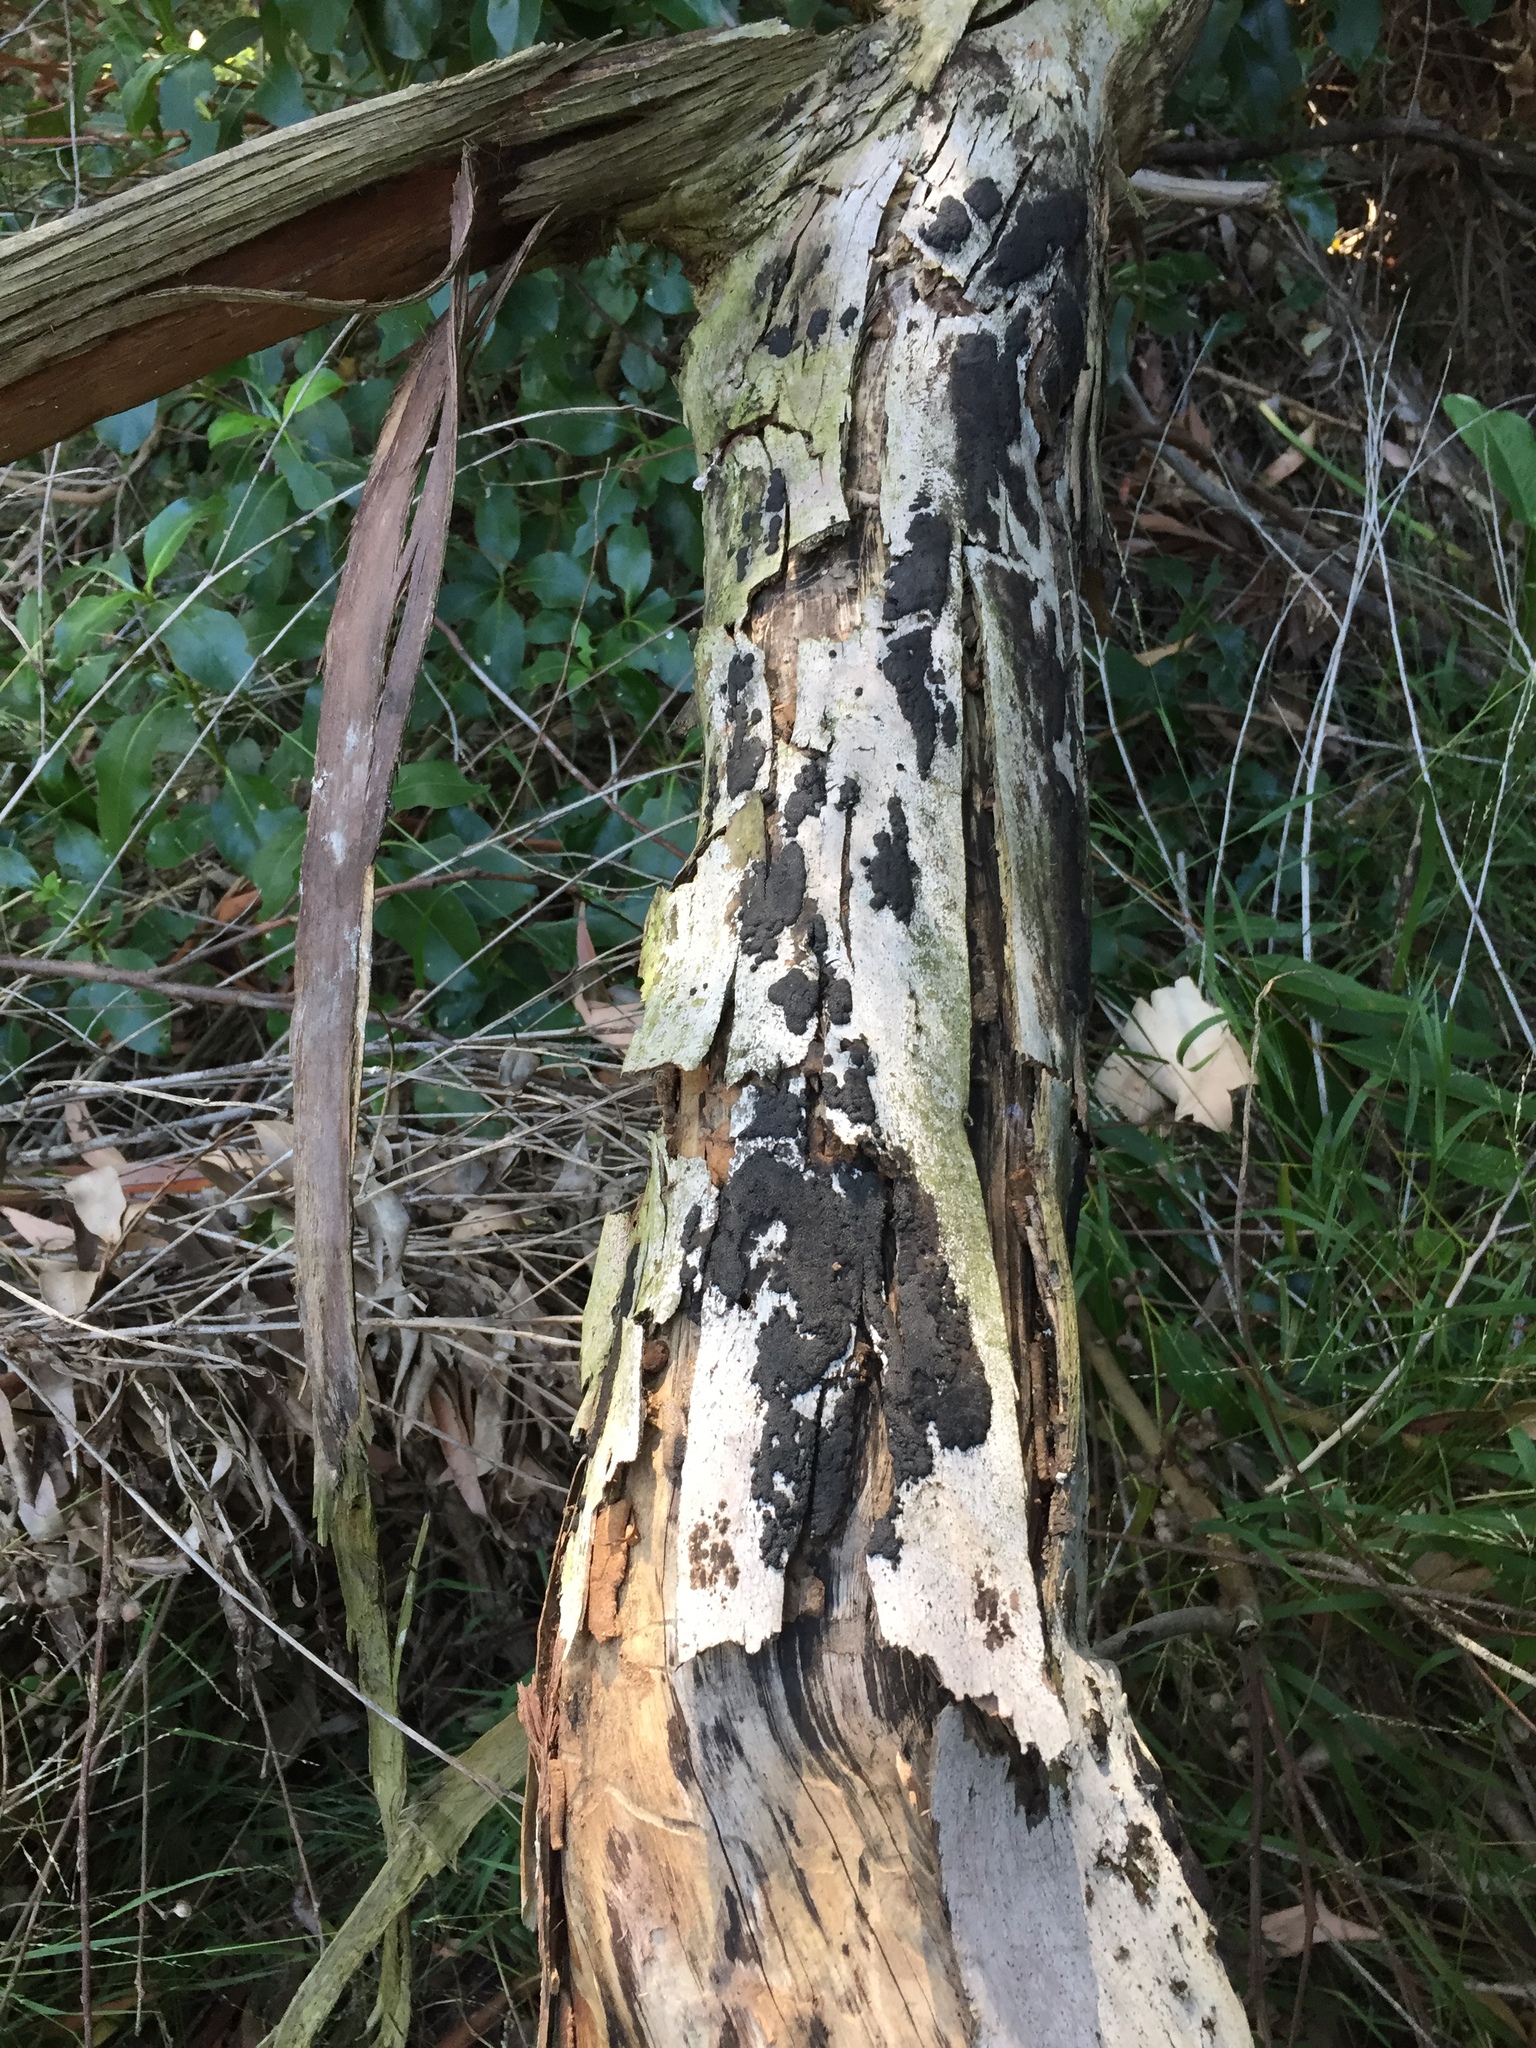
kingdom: Fungi
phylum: Ascomycota
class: Sordariomycetes
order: Xylariales
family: Hypoxylaceae
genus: Annulohypoxylon
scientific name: Annulohypoxylon bovei
